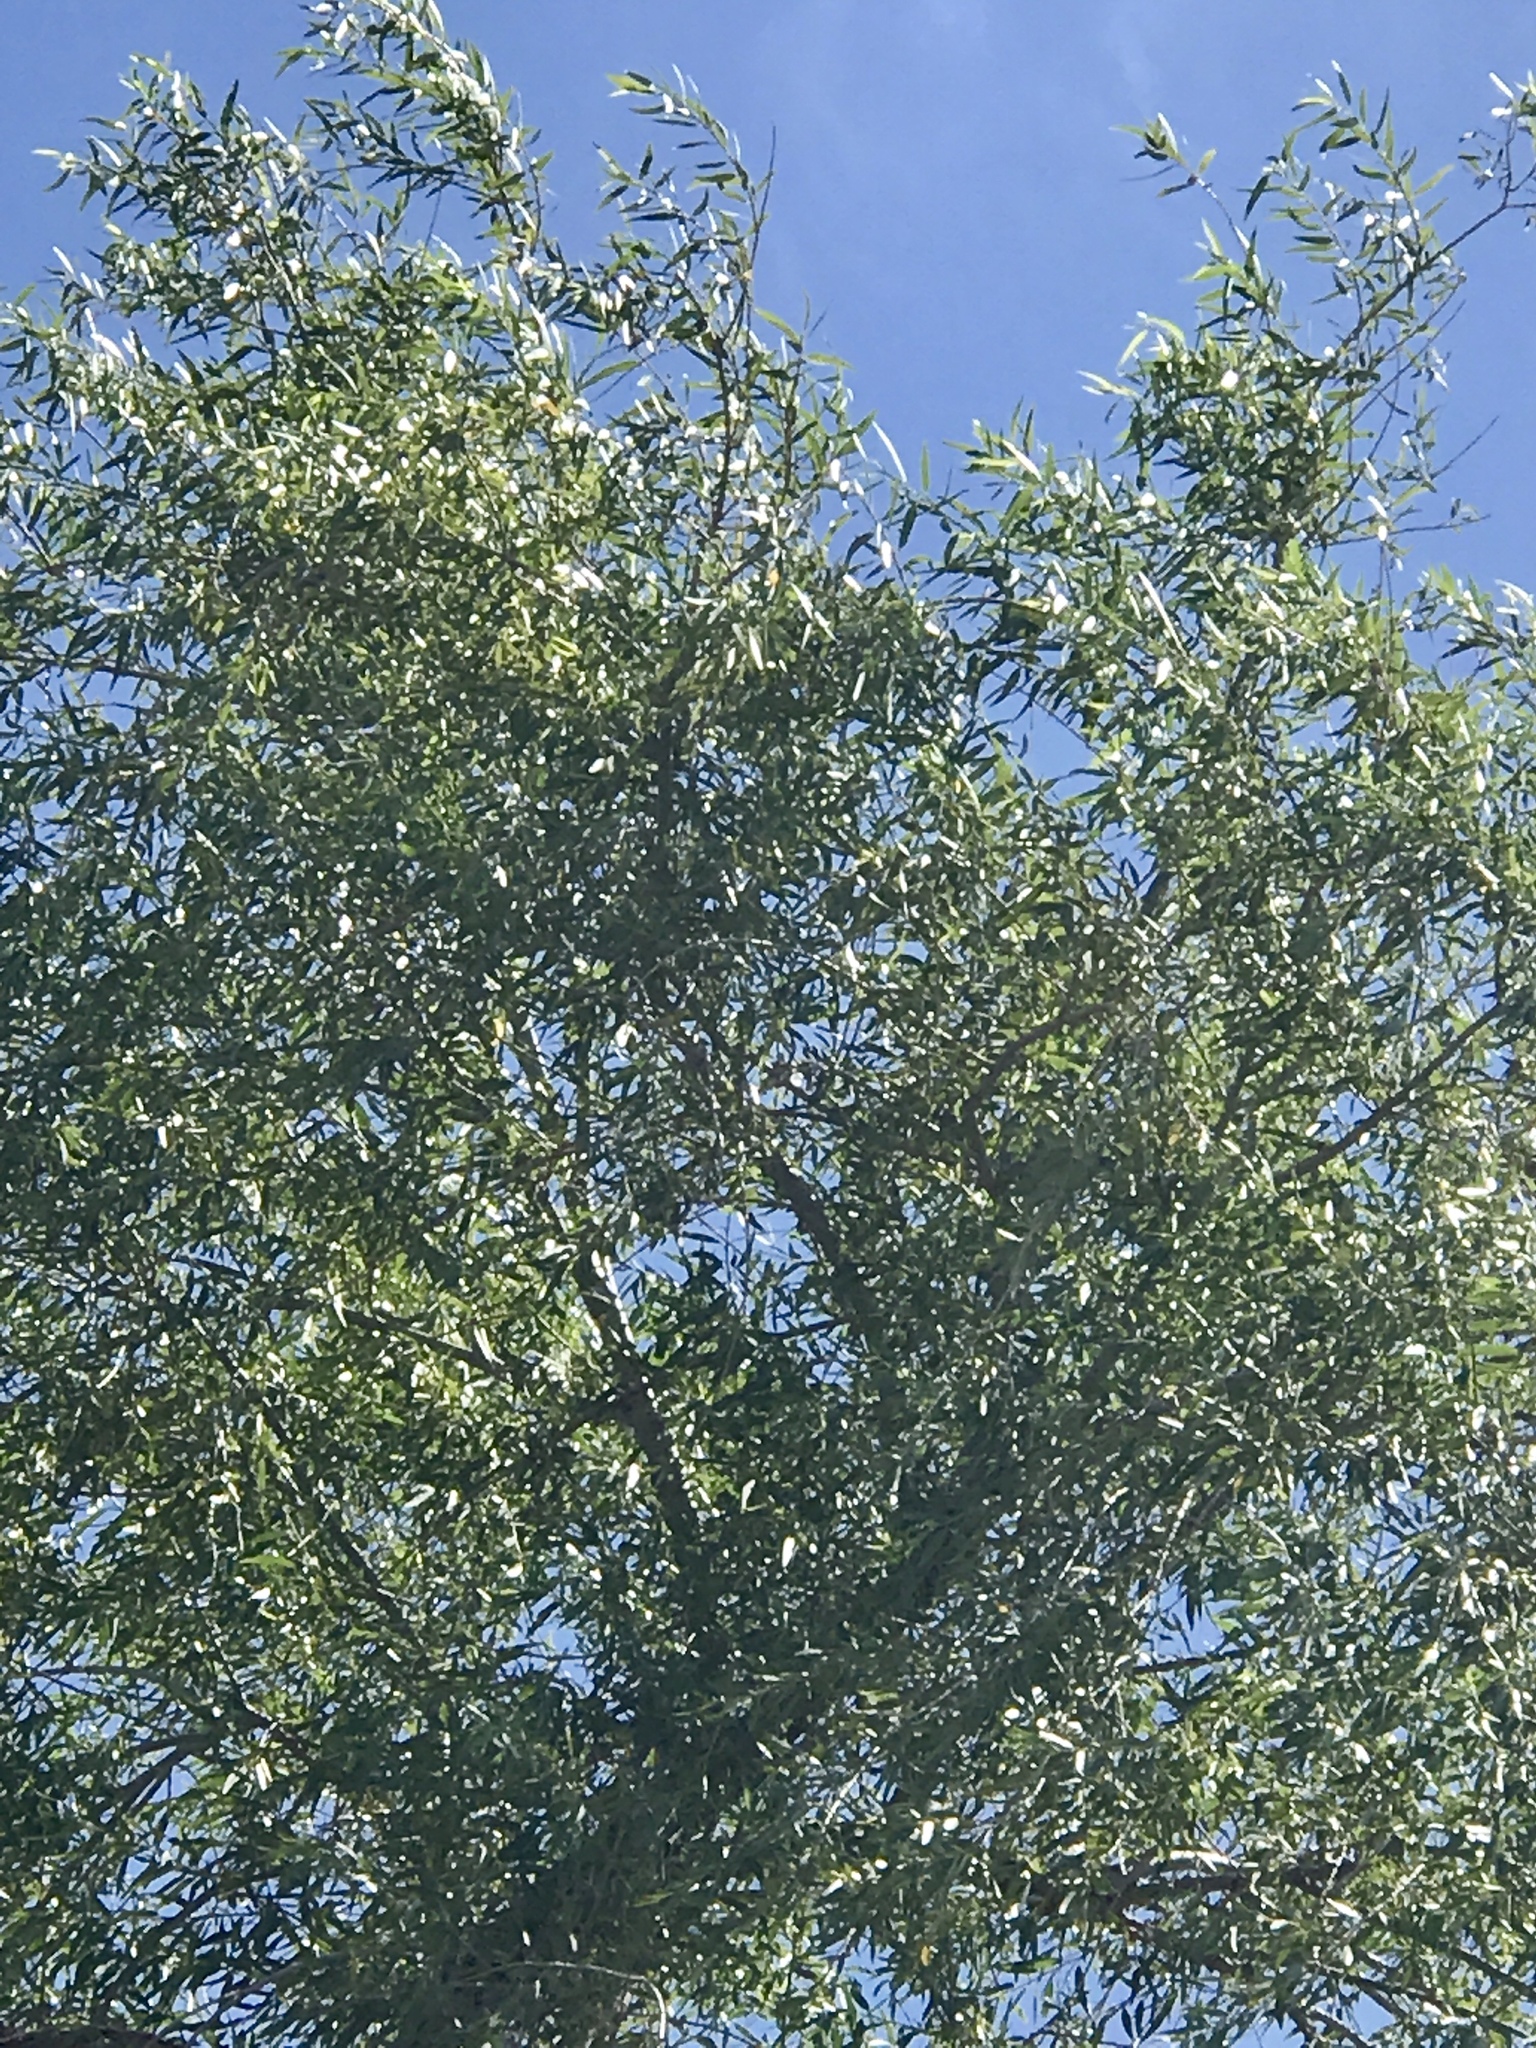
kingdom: Plantae
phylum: Tracheophyta
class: Magnoliopsida
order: Malpighiales
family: Salicaceae
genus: Salix
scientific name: Salix gooddingii
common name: Goodding's willow
